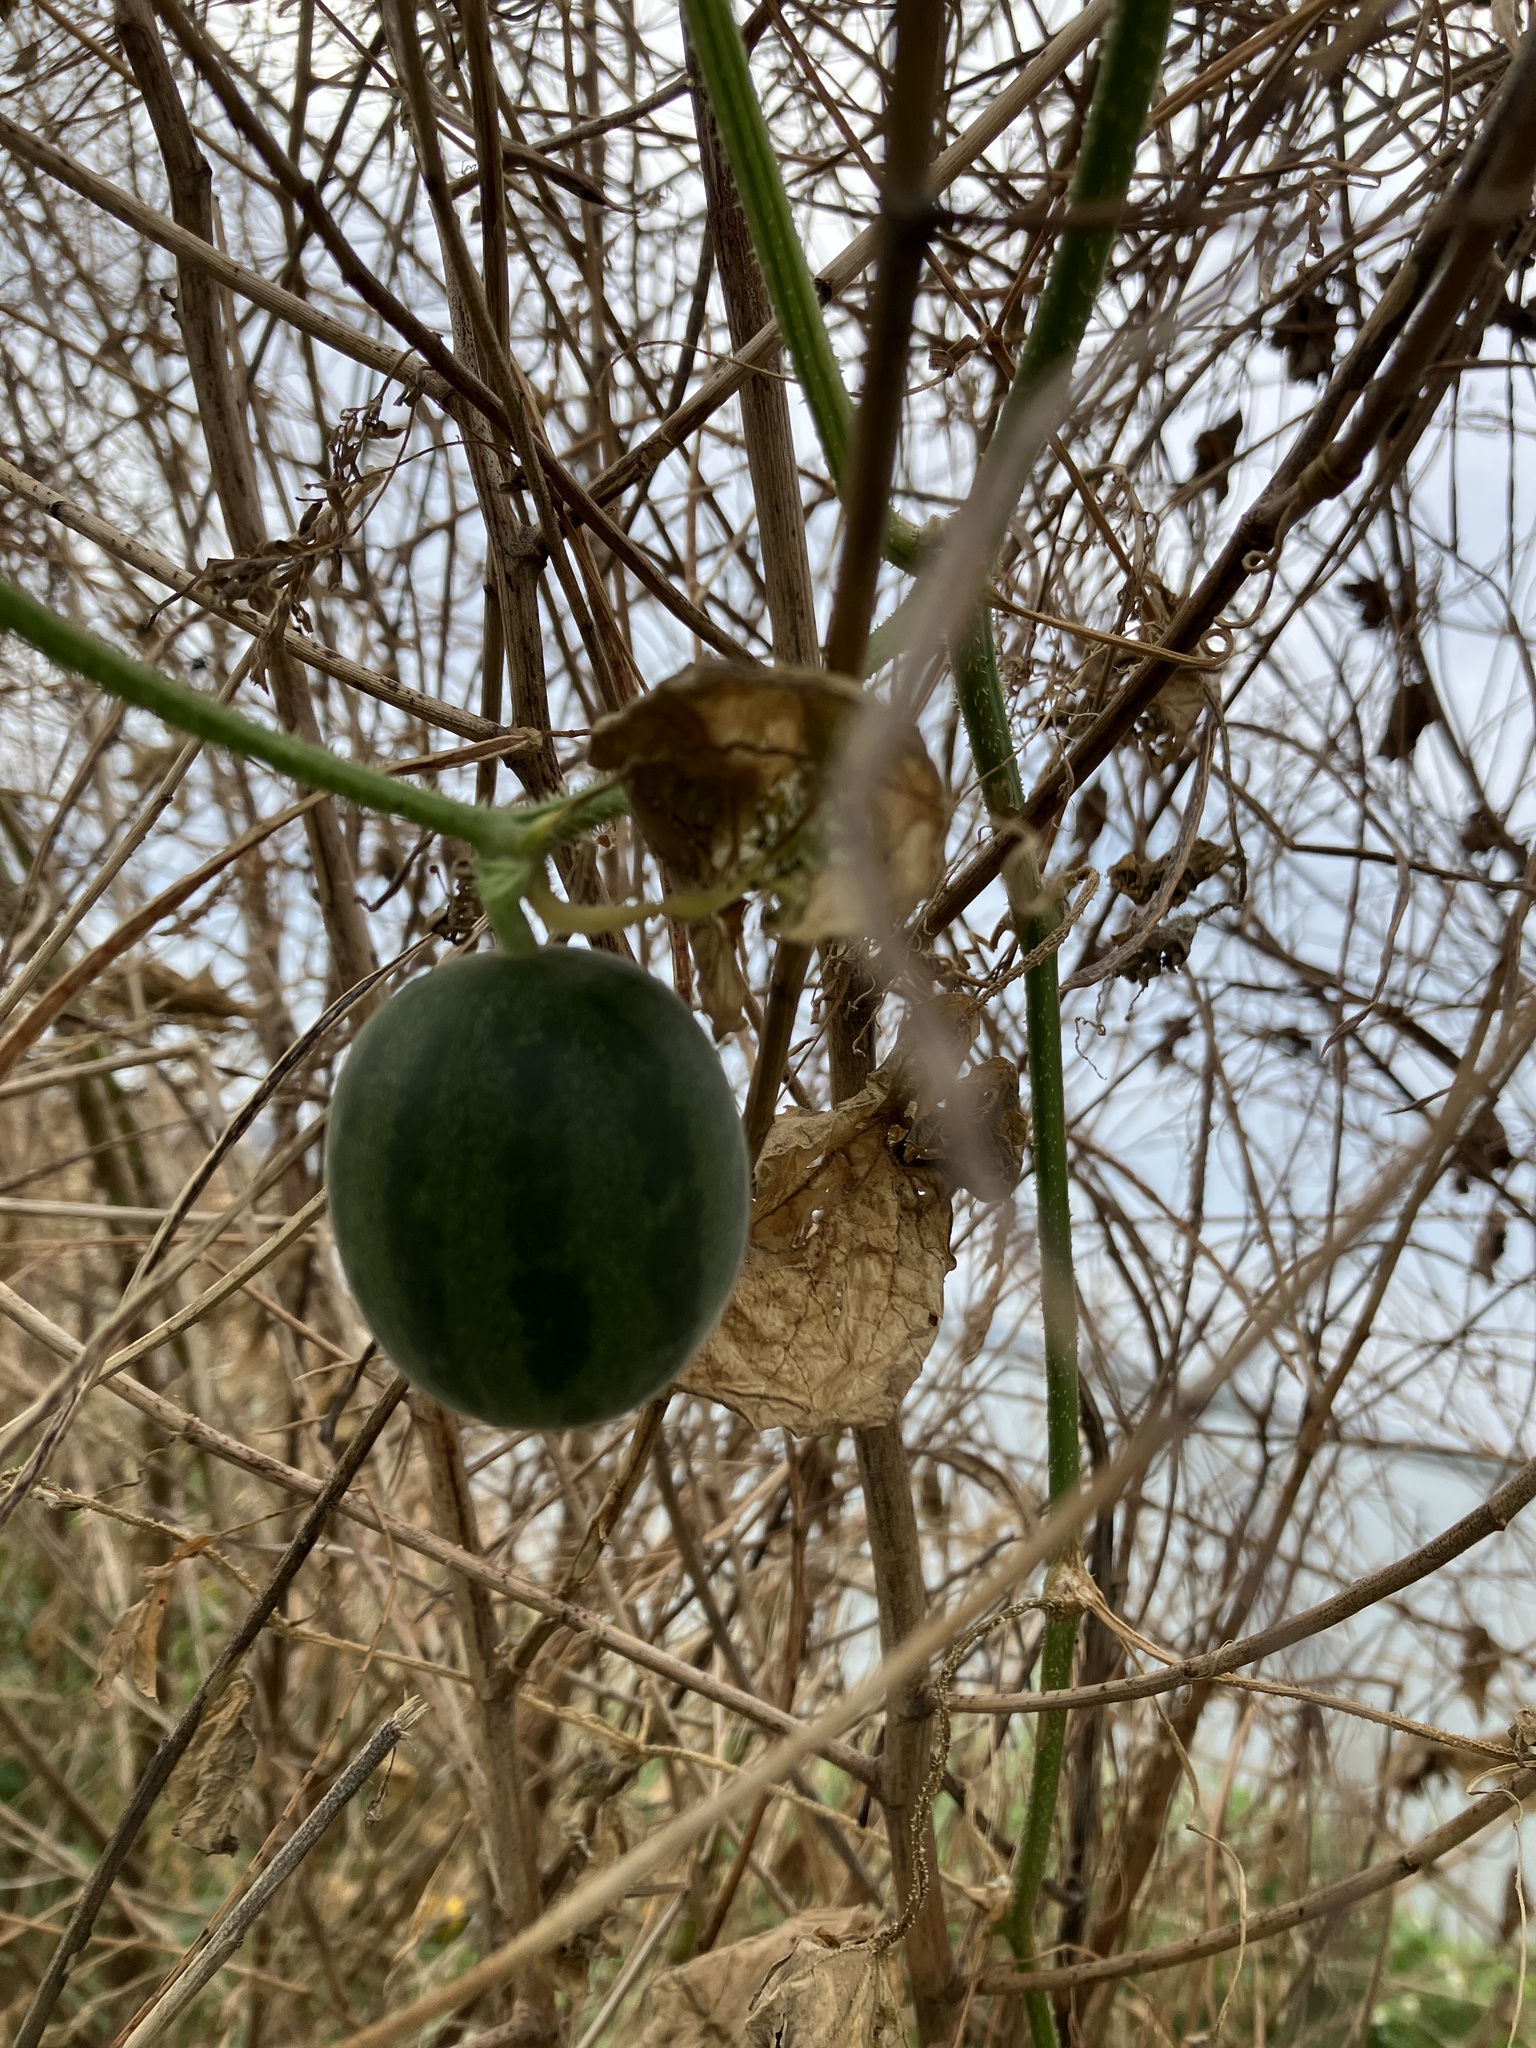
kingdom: Plantae
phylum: Tracheophyta
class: Magnoliopsida
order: Cucurbitales
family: Cucurbitaceae
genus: Cucumis
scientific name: Cucumis melo
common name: Melon
